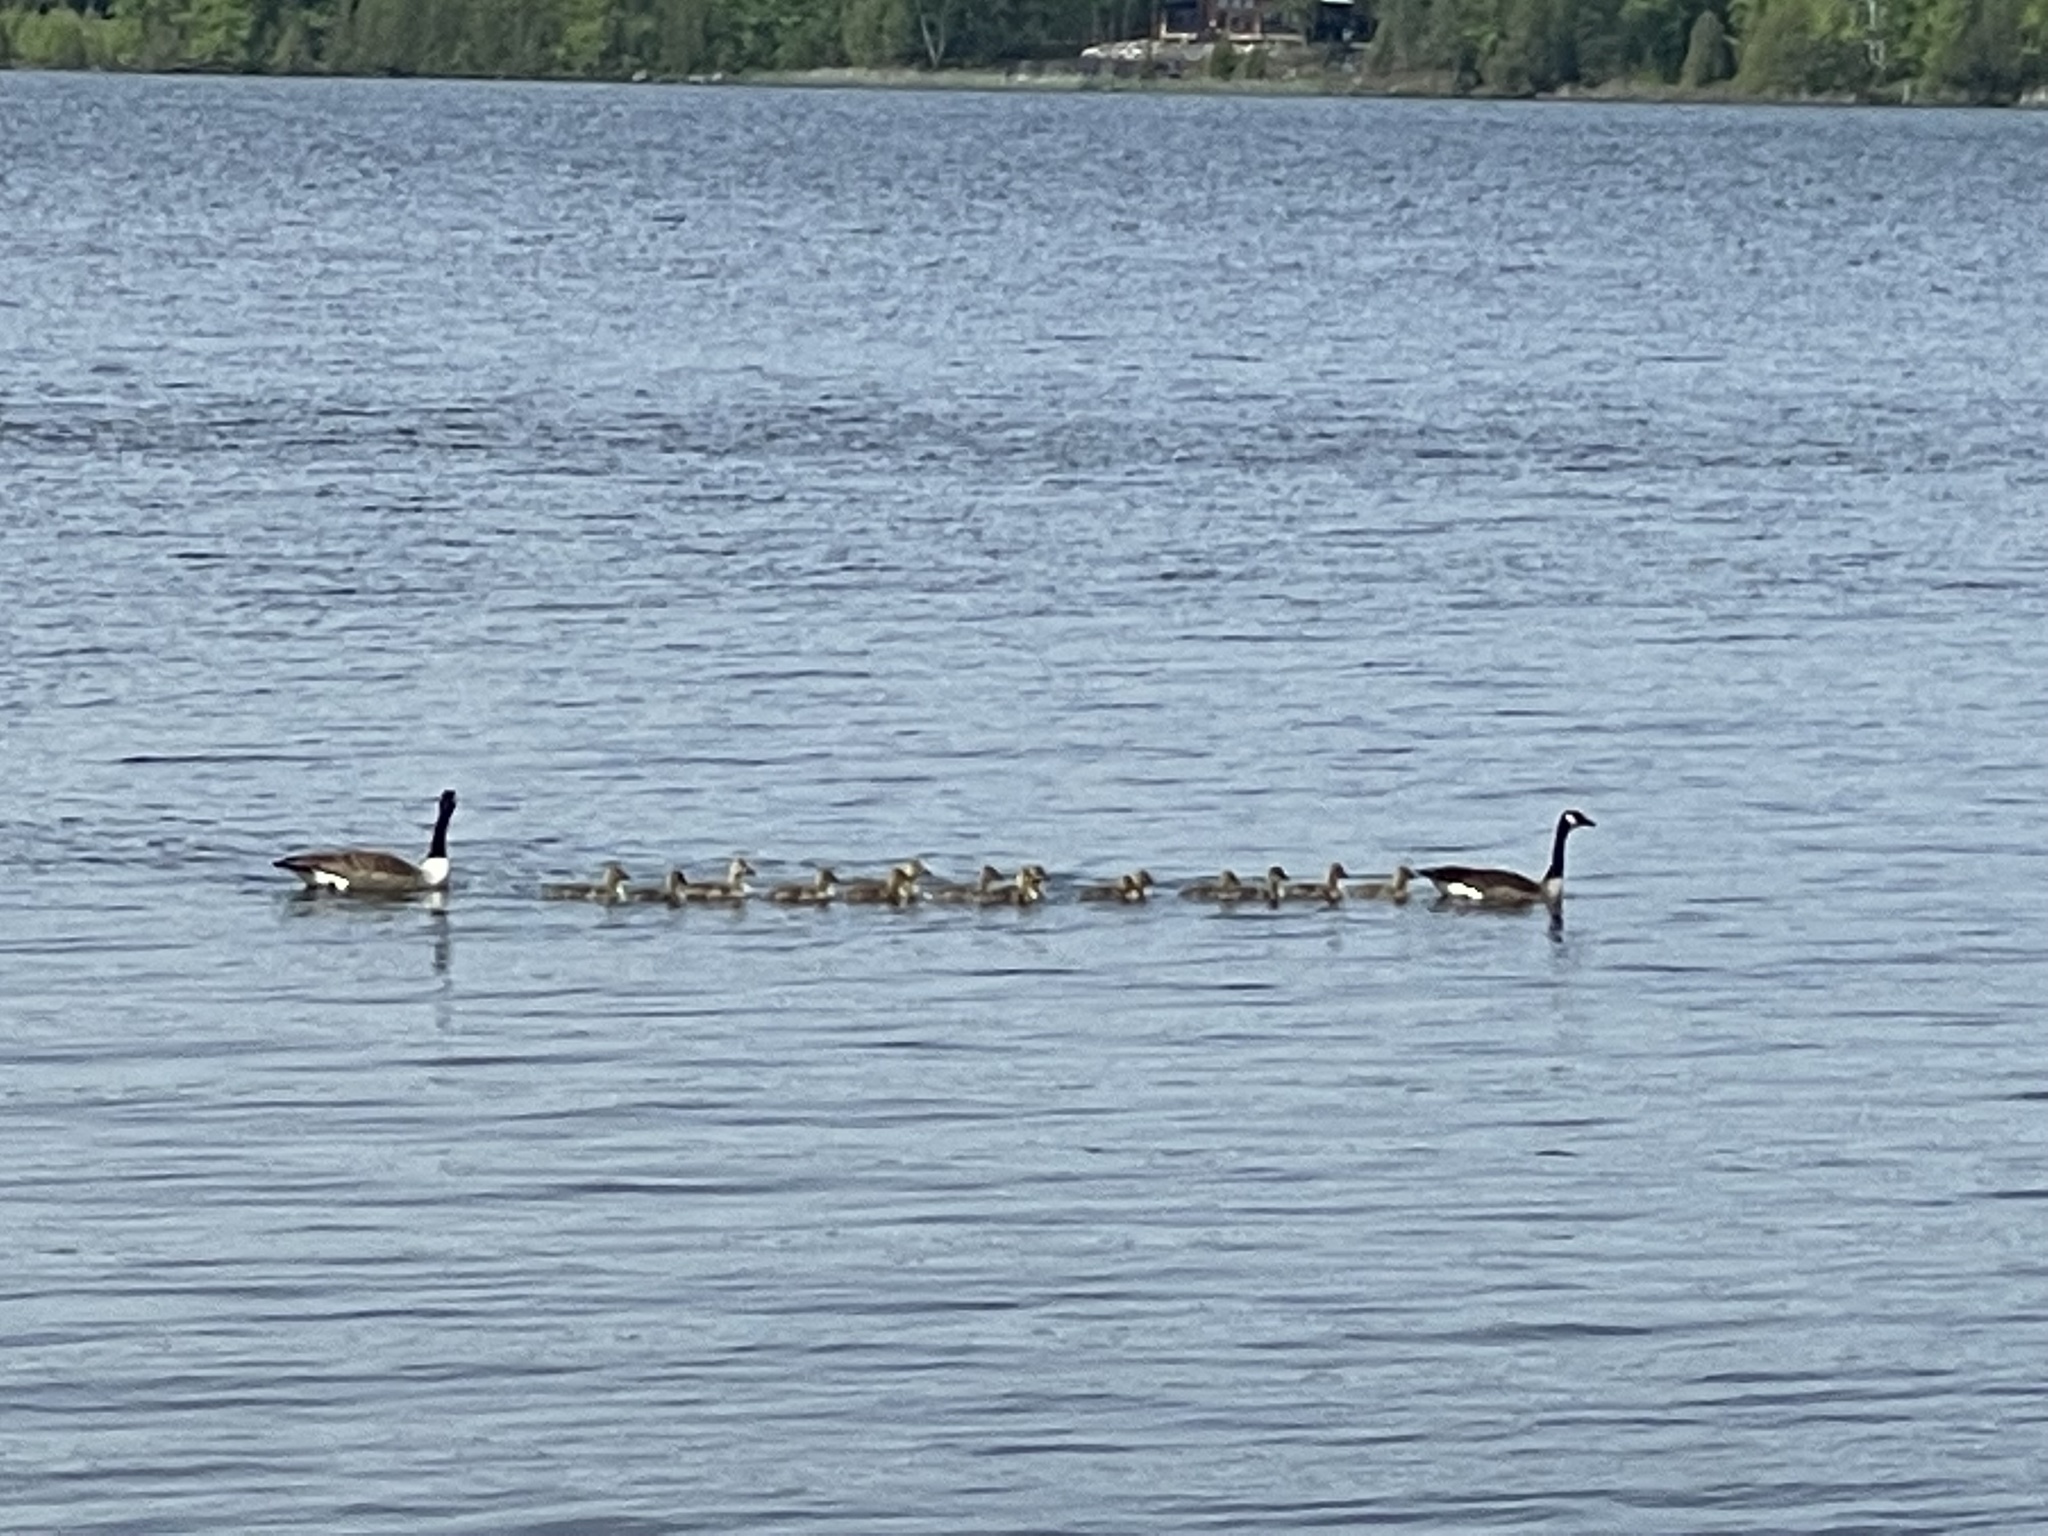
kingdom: Animalia
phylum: Chordata
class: Aves
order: Anseriformes
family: Anatidae
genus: Branta
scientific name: Branta canadensis
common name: Canada goose
